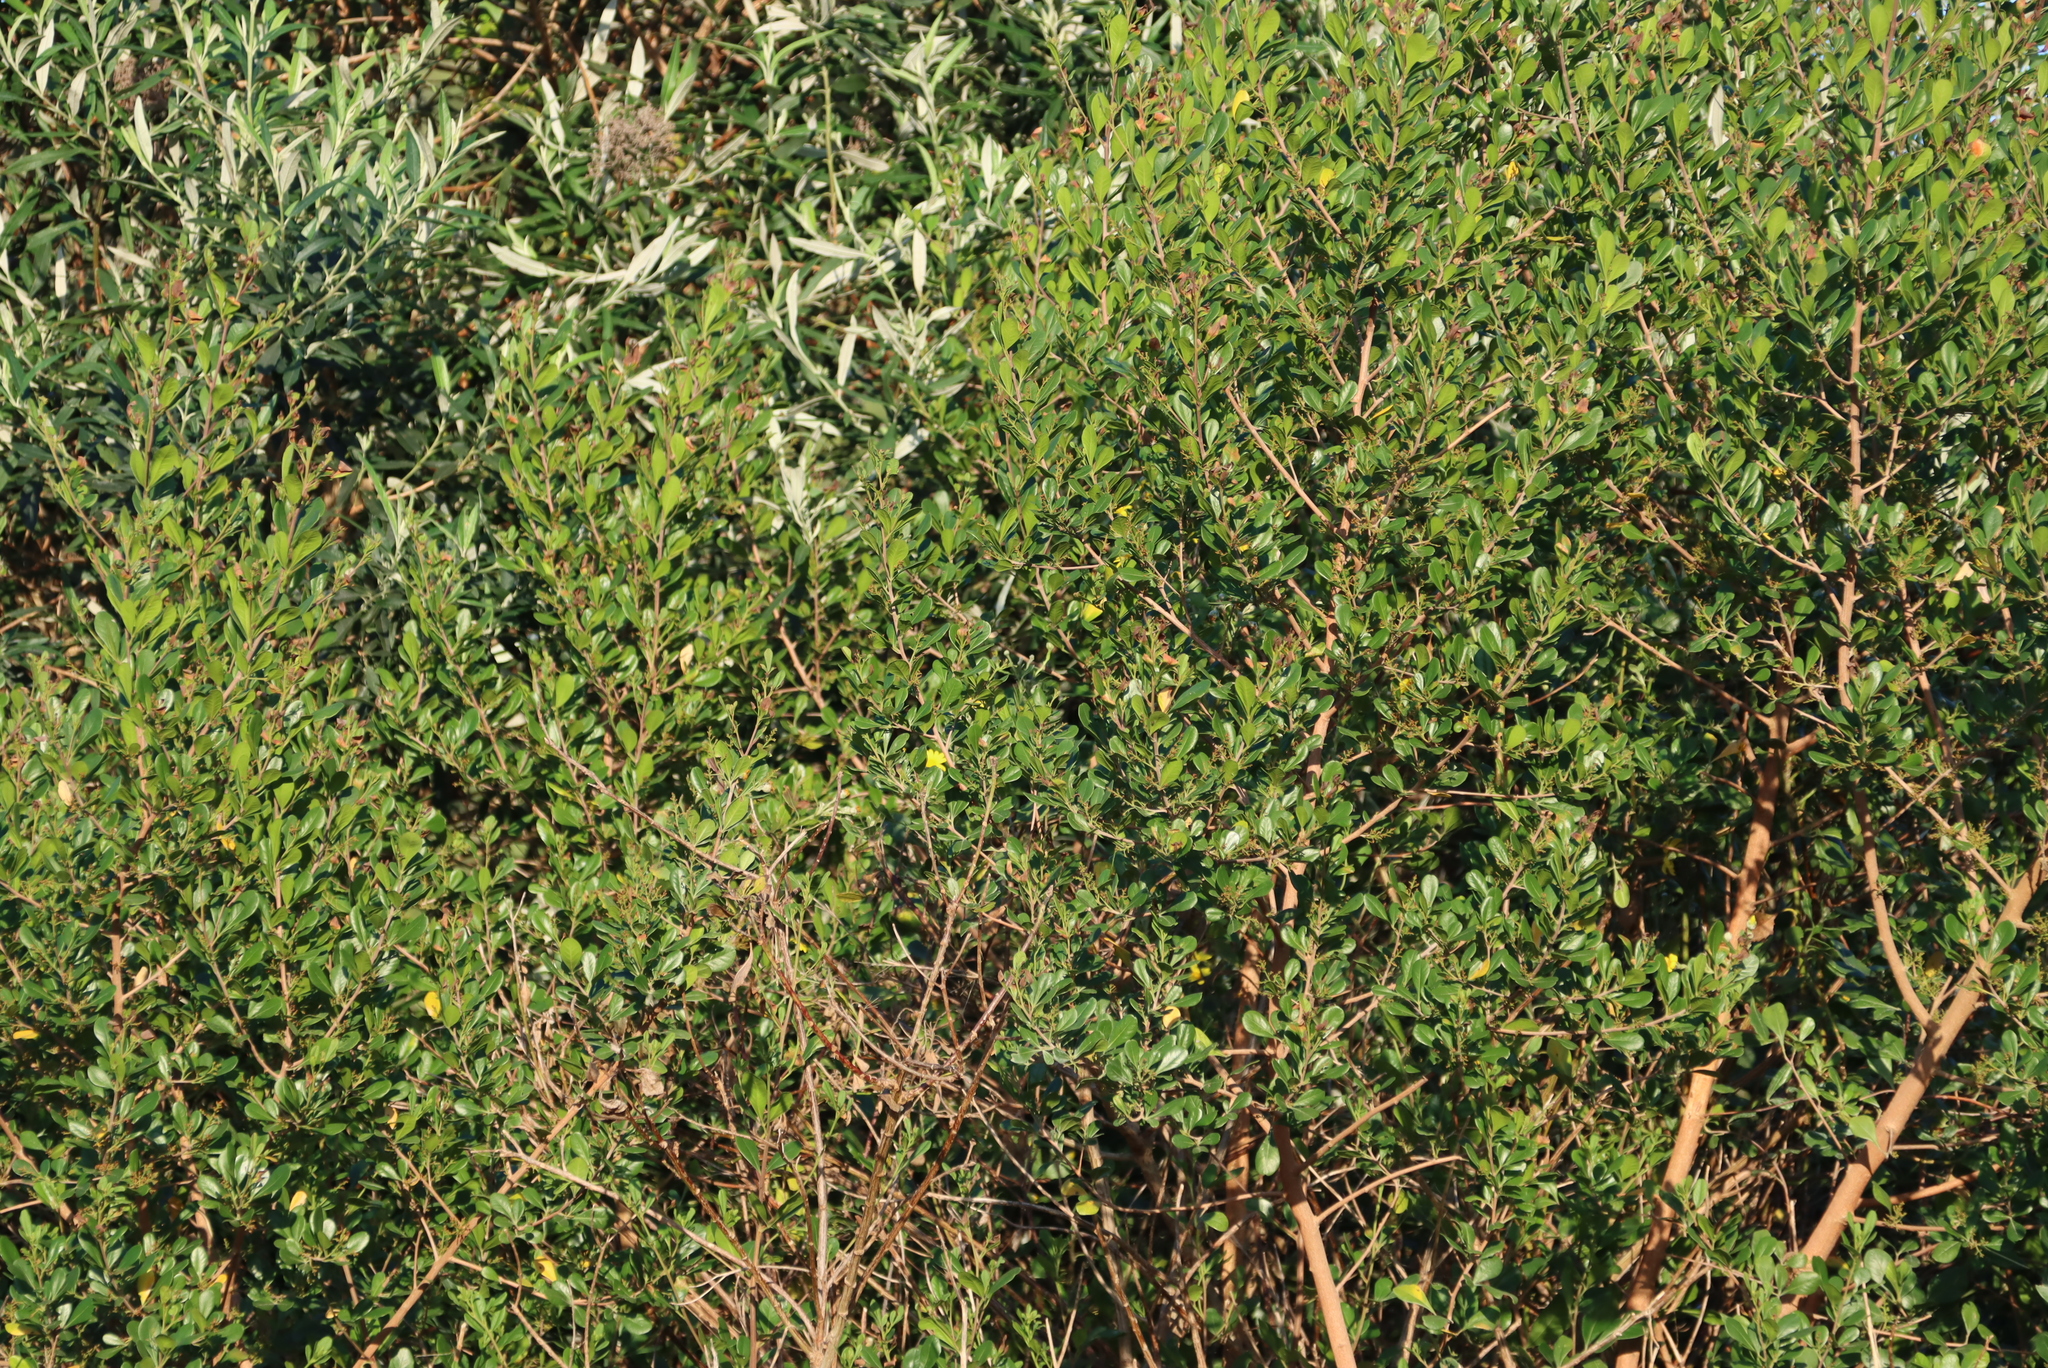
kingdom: Plantae
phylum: Tracheophyta
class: Magnoliopsida
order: Sapindales
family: Anacardiaceae
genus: Searsia
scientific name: Searsia lucida
